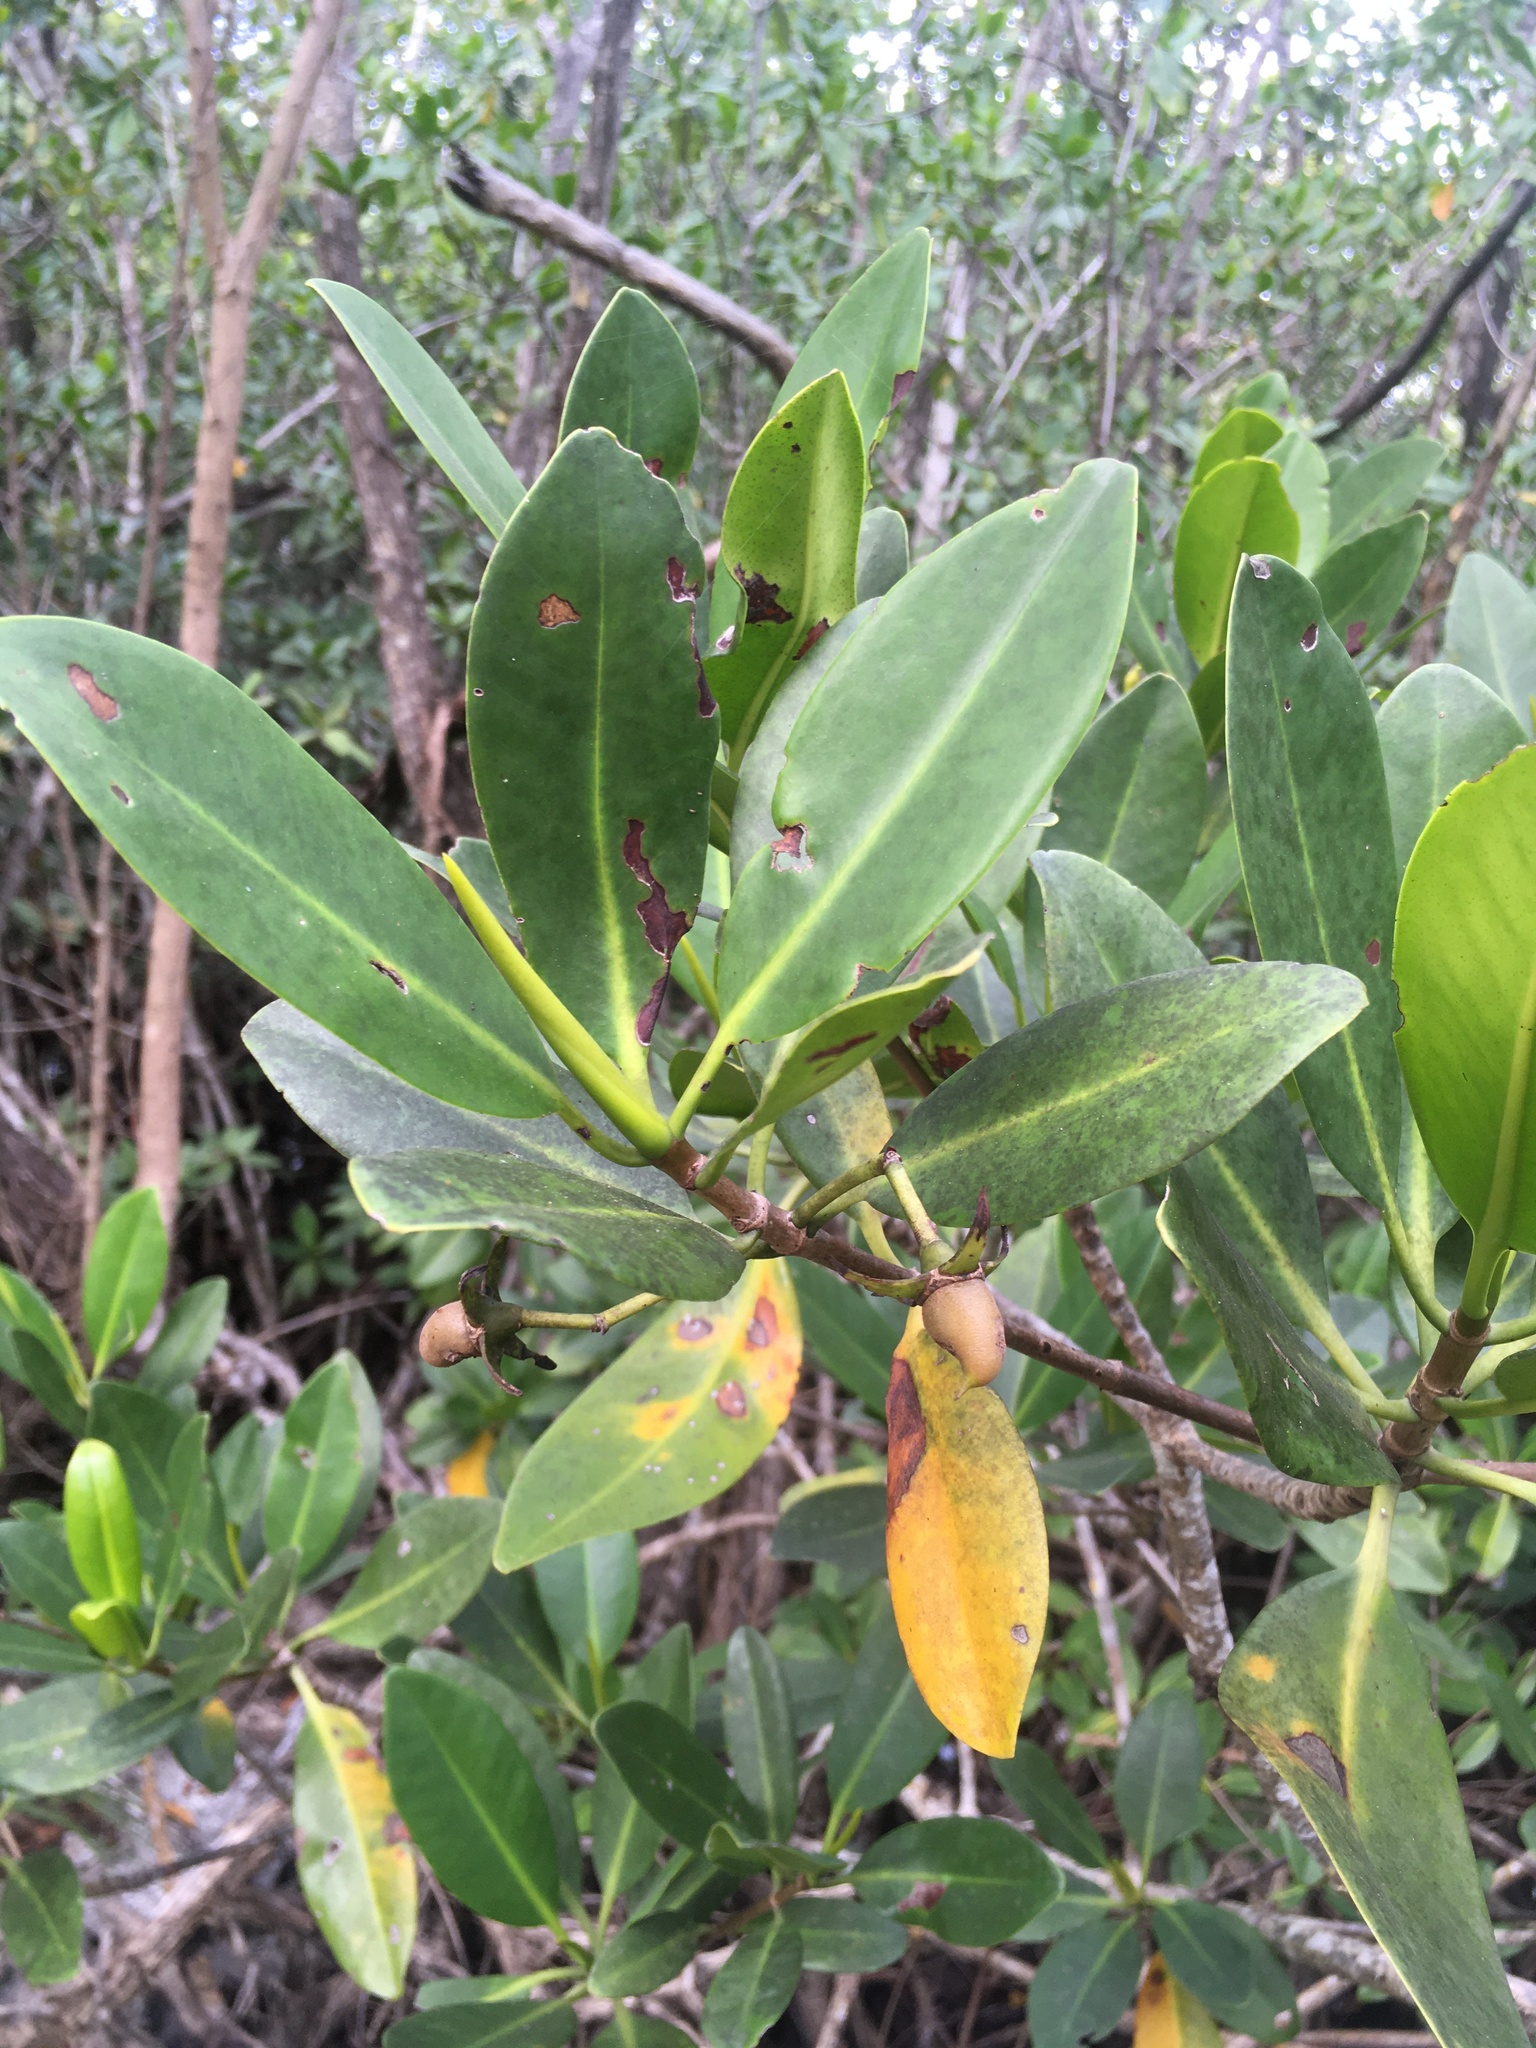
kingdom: Plantae
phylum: Tracheophyta
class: Magnoliopsida
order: Malpighiales
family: Rhizophoraceae
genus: Rhizophora
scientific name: Rhizophora mangle
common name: Red mangrove
